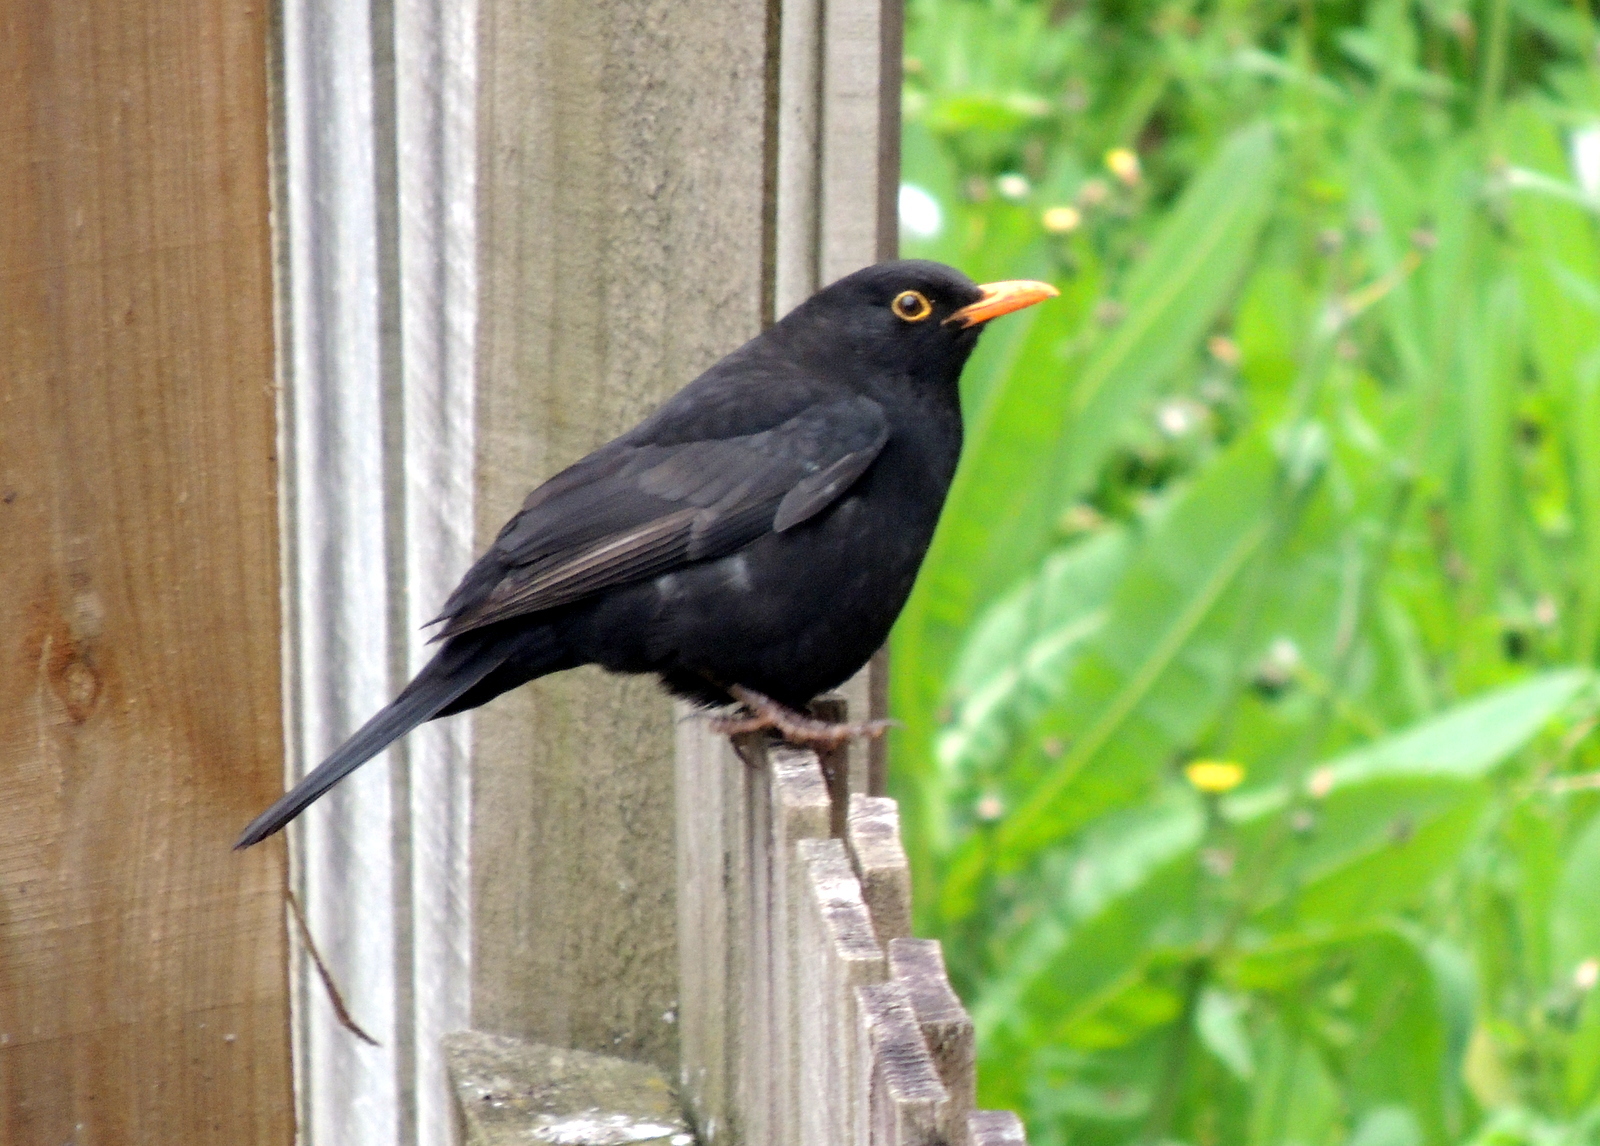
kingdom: Animalia
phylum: Chordata
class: Aves
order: Passeriformes
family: Turdidae
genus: Turdus
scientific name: Turdus merula
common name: Common blackbird
